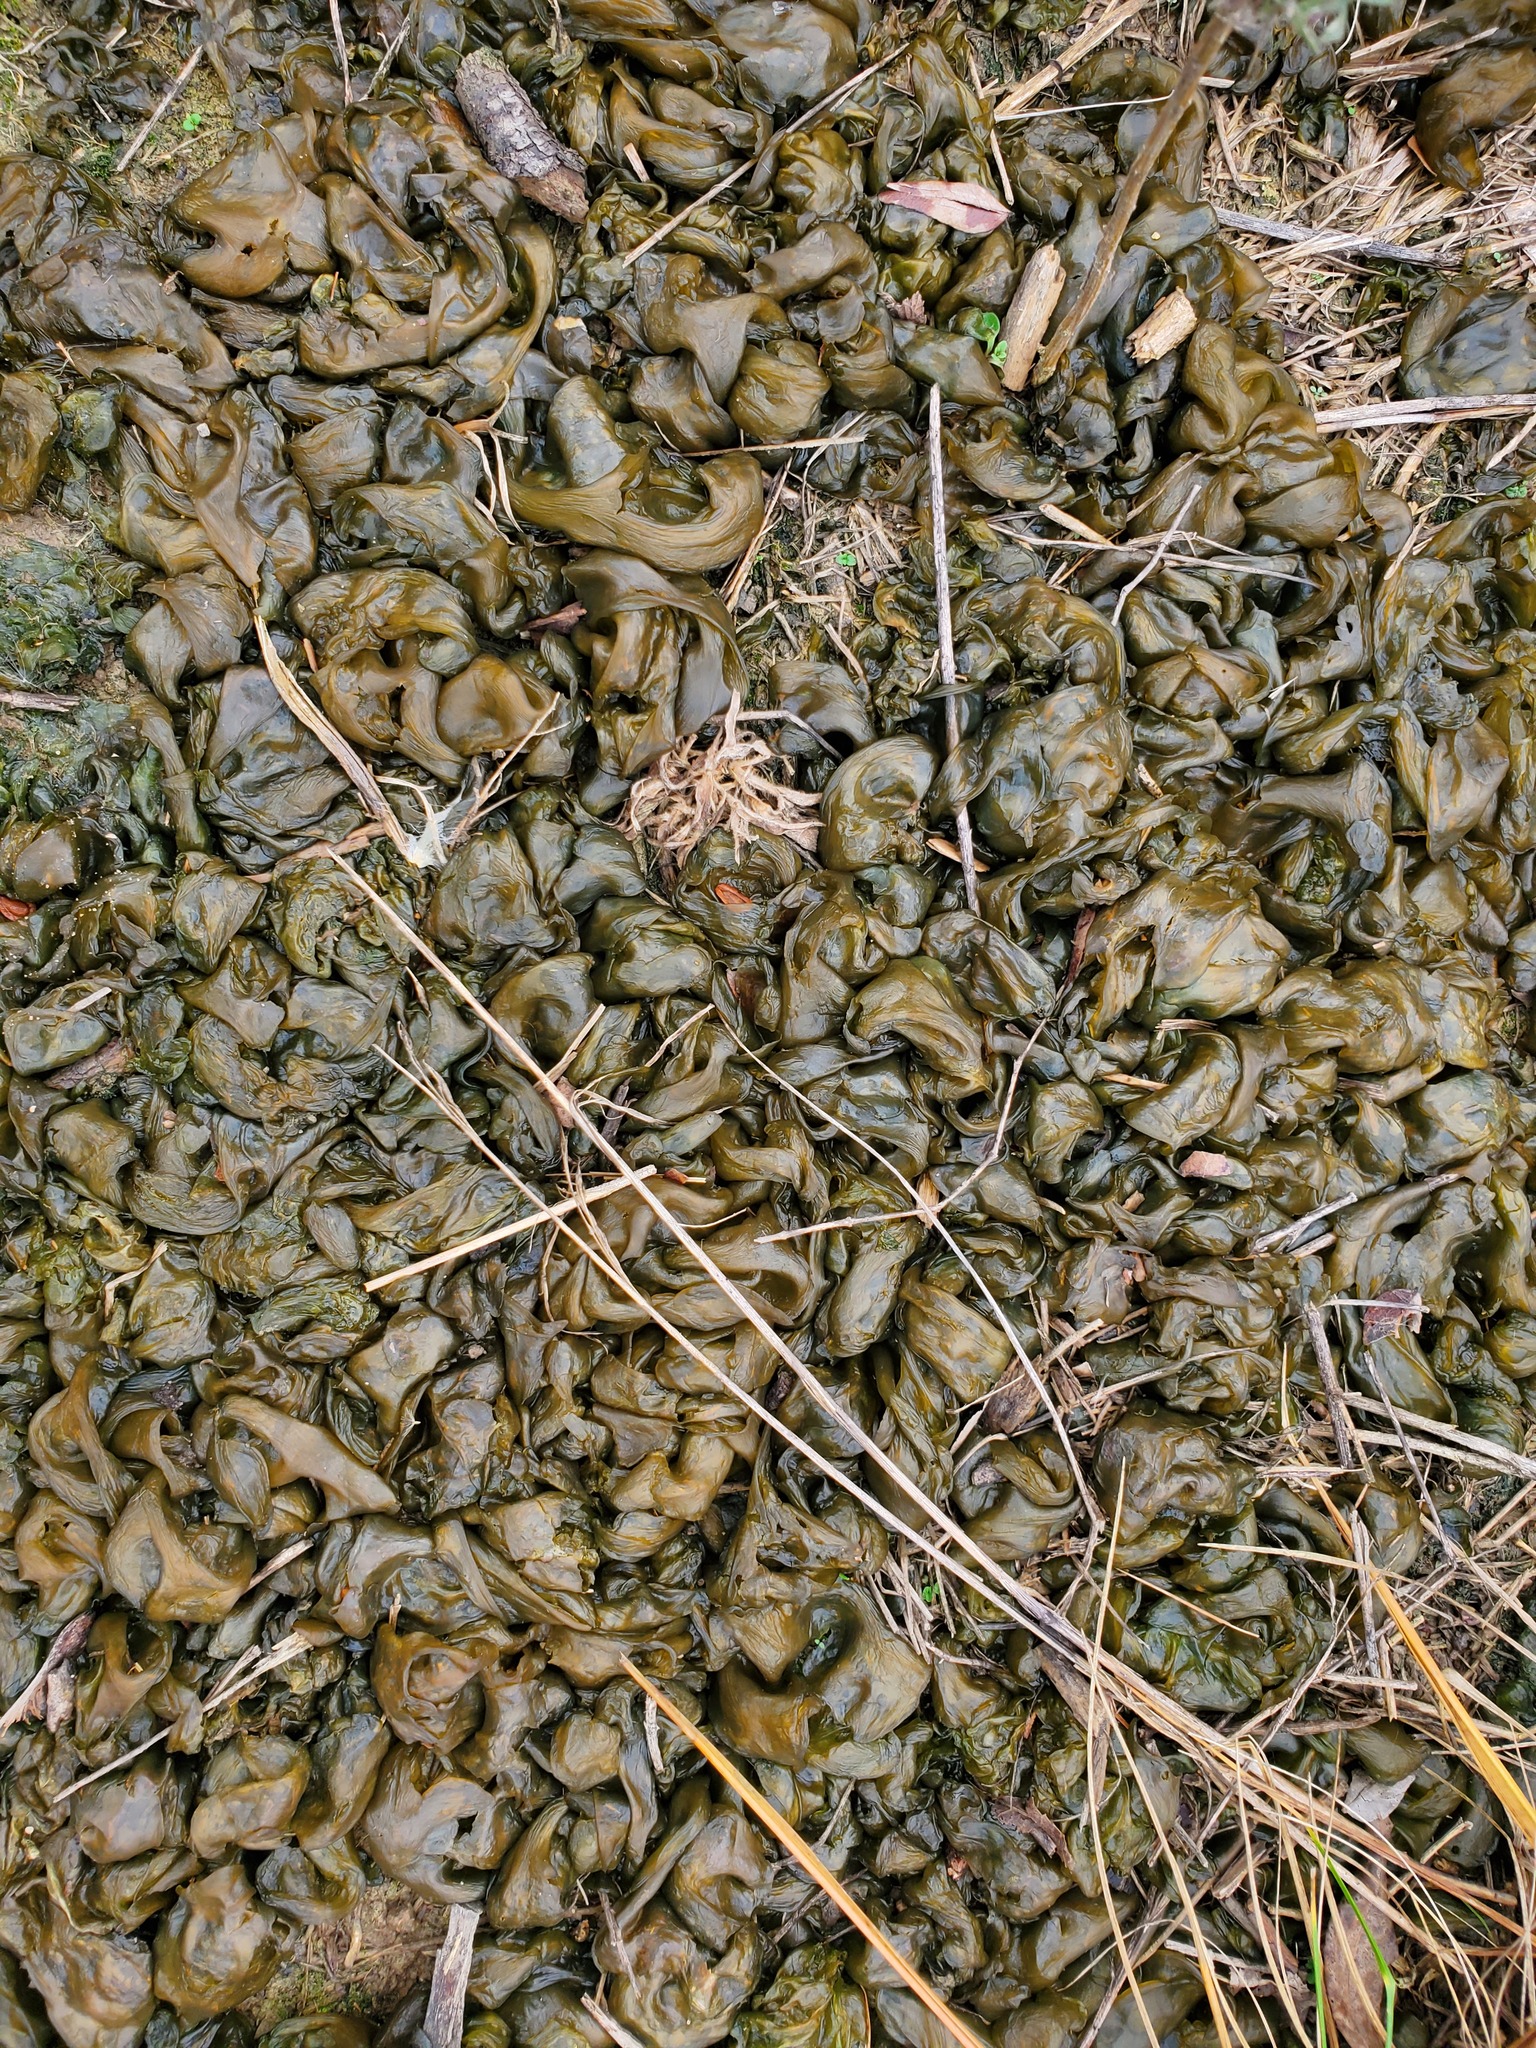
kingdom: Bacteria
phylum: Cyanobacteria
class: Cyanobacteriia
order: Cyanobacteriales
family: Nostocaceae
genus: Nostoc
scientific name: Nostoc commune
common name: Star jelly
